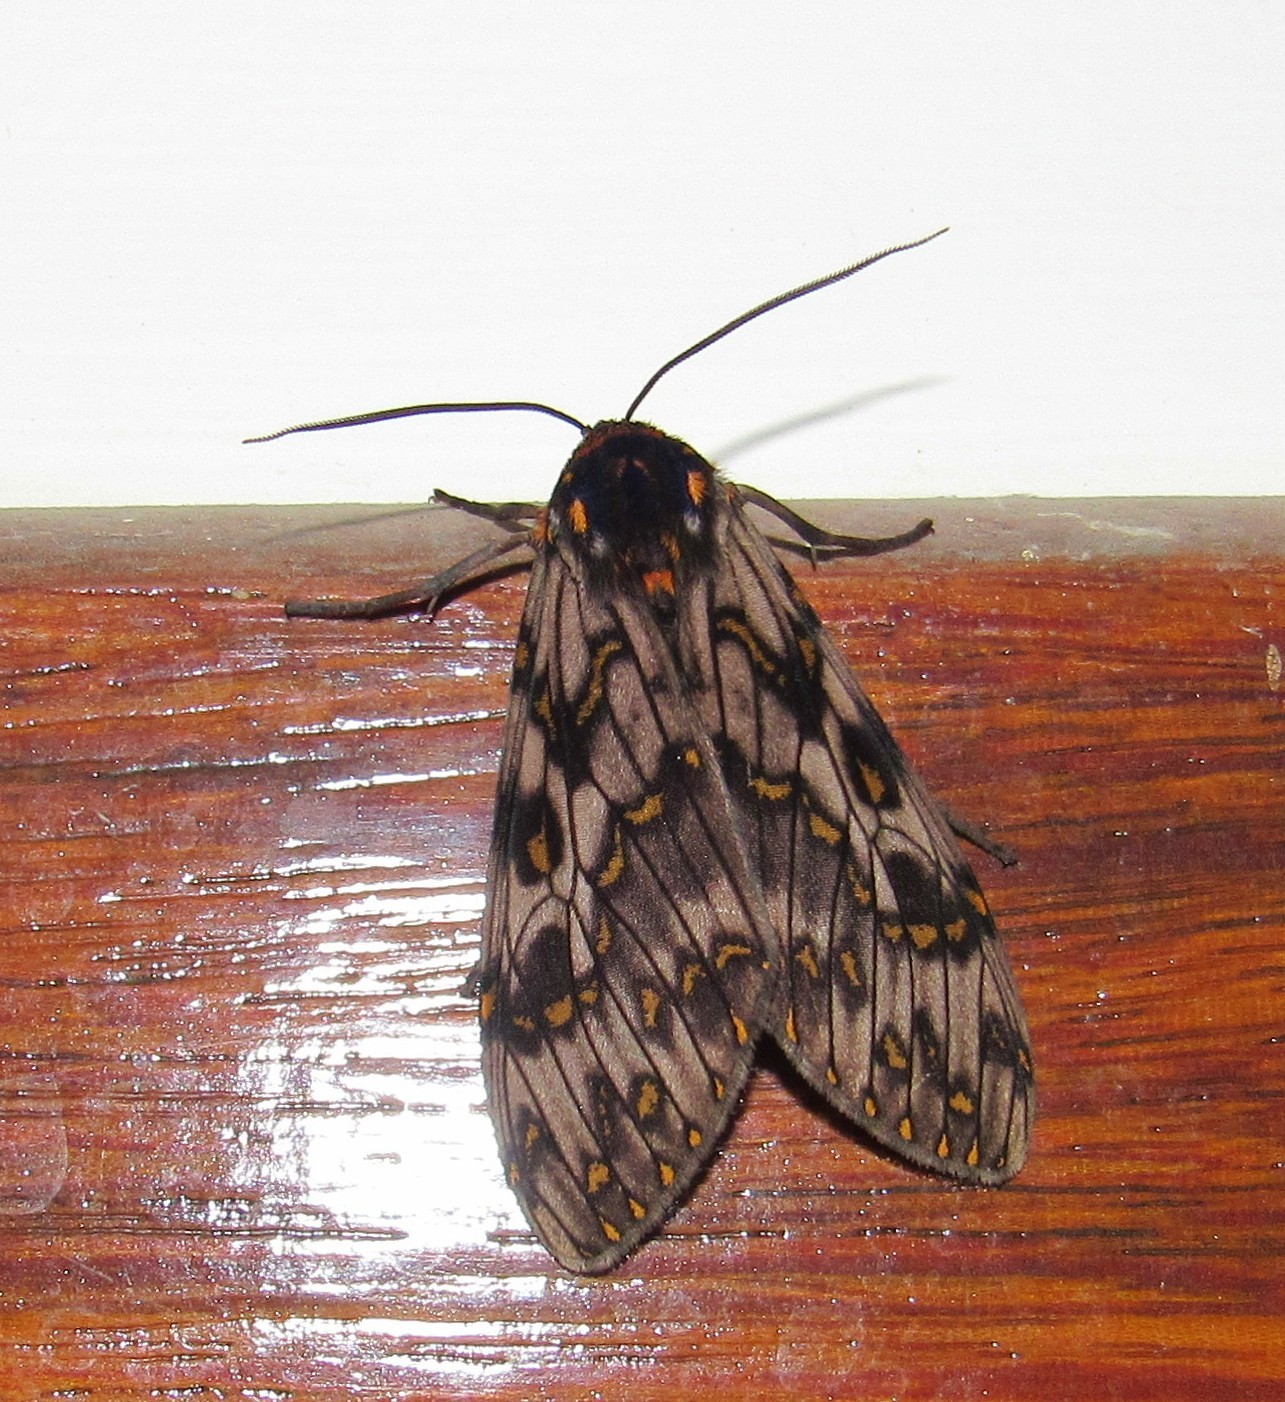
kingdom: Animalia
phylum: Arthropoda
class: Insecta
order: Lepidoptera
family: Erebidae
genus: Phaegoptera
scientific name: Phaegoptera chorima
